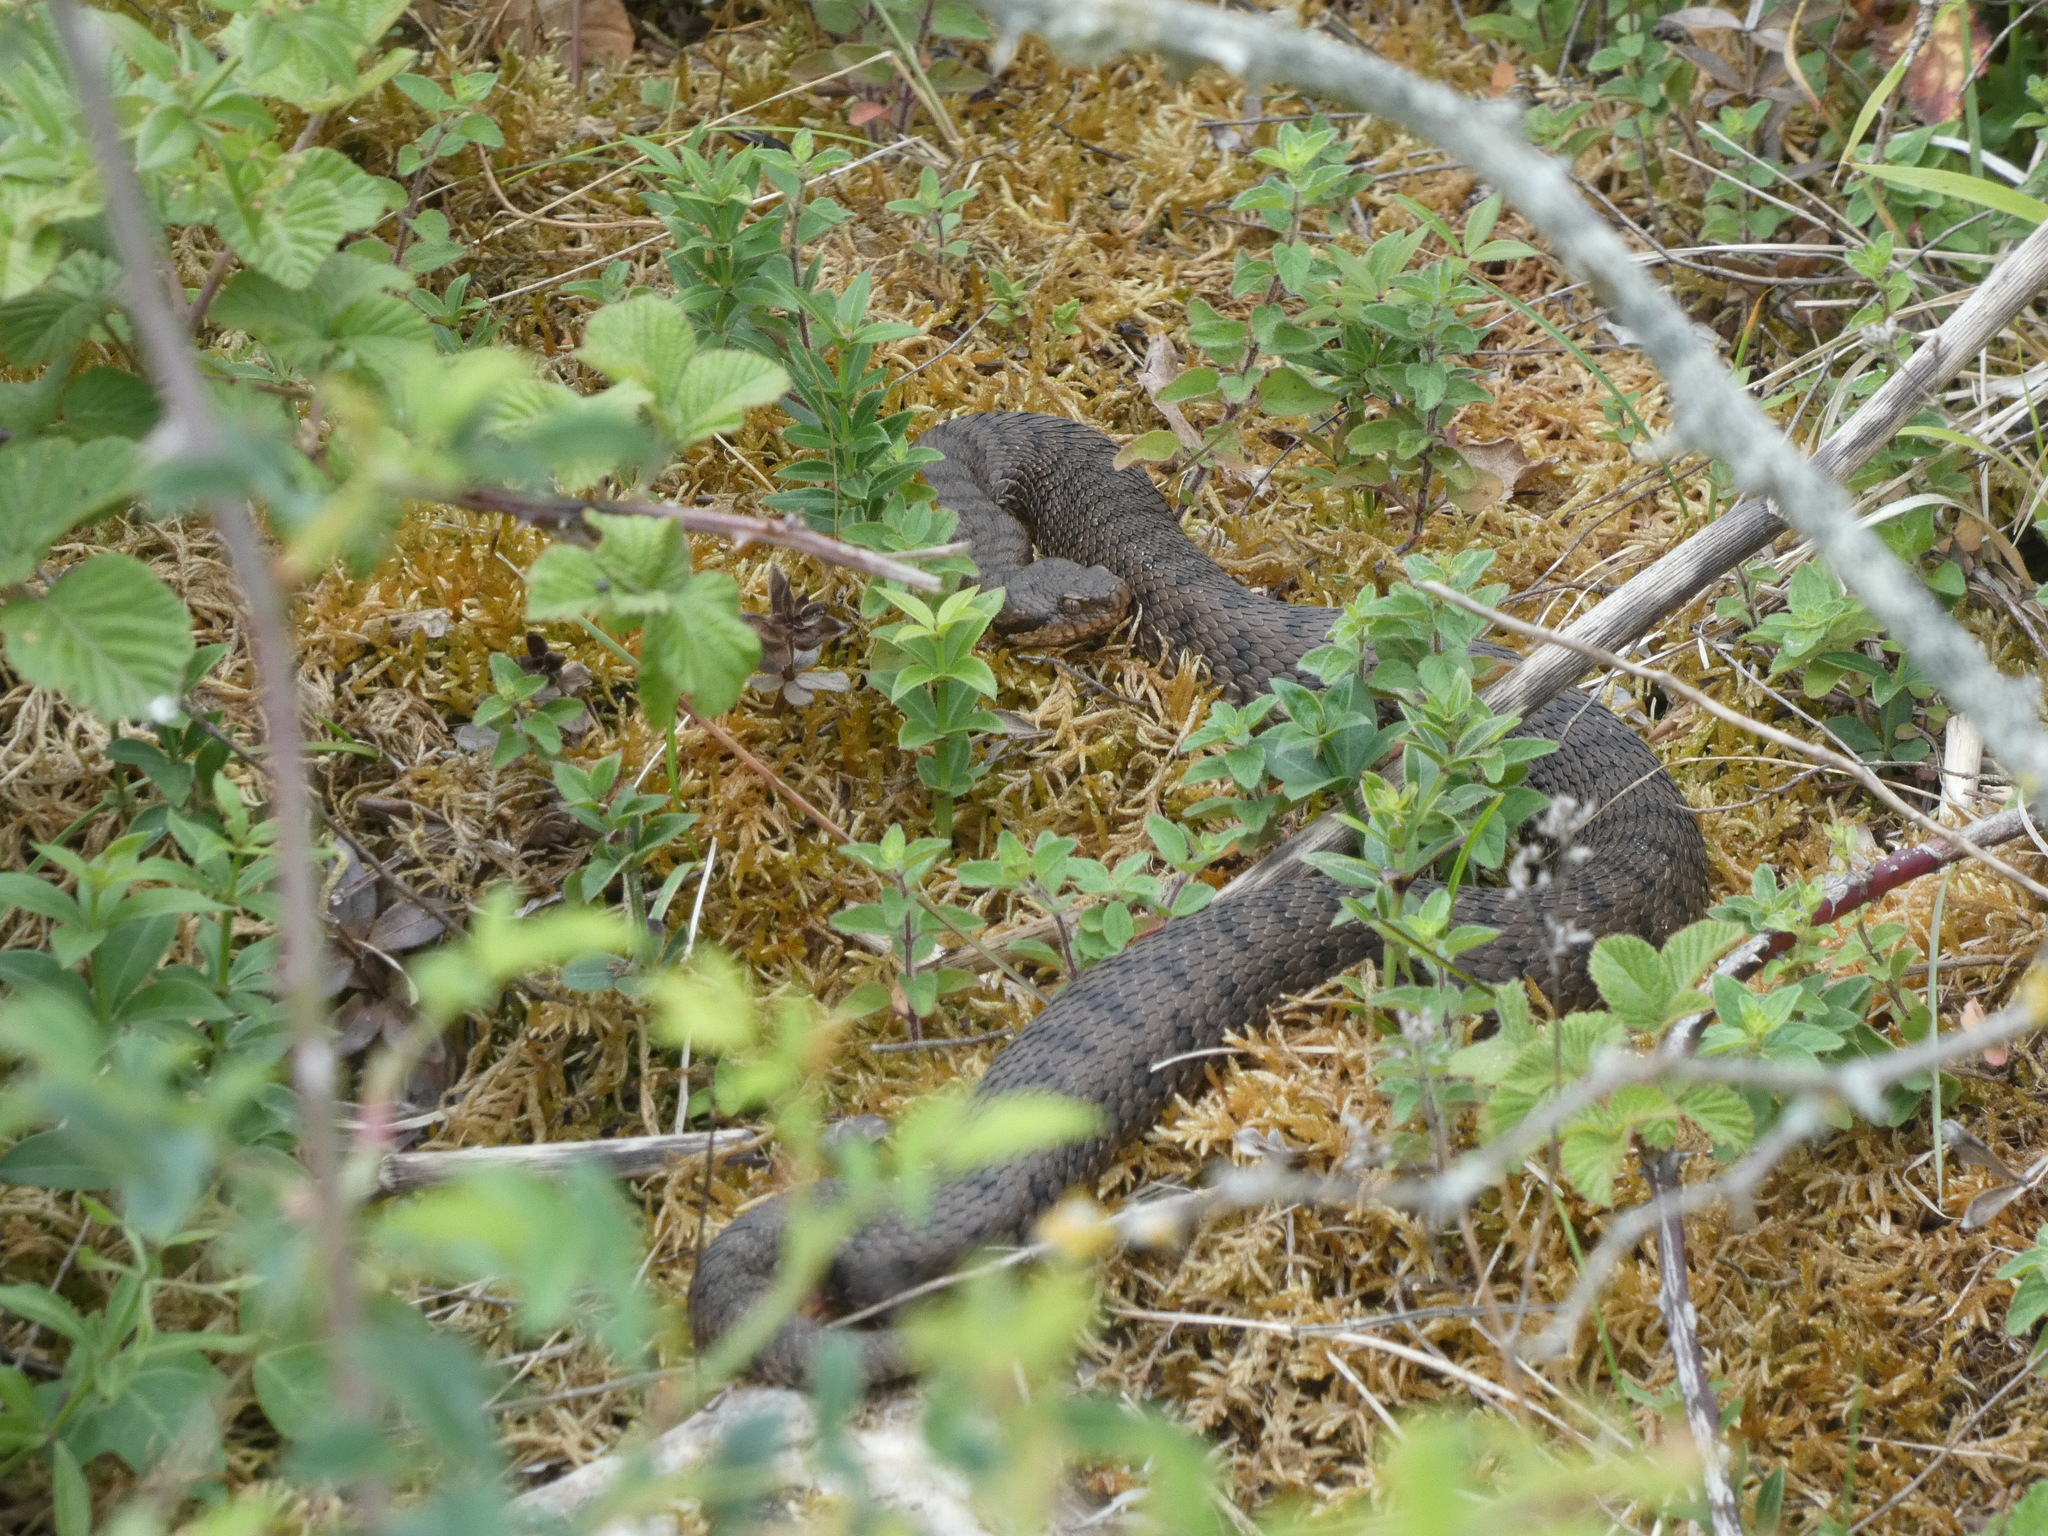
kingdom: Animalia
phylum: Chordata
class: Squamata
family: Viperidae
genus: Vipera
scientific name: Vipera aspis
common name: Asp viper
